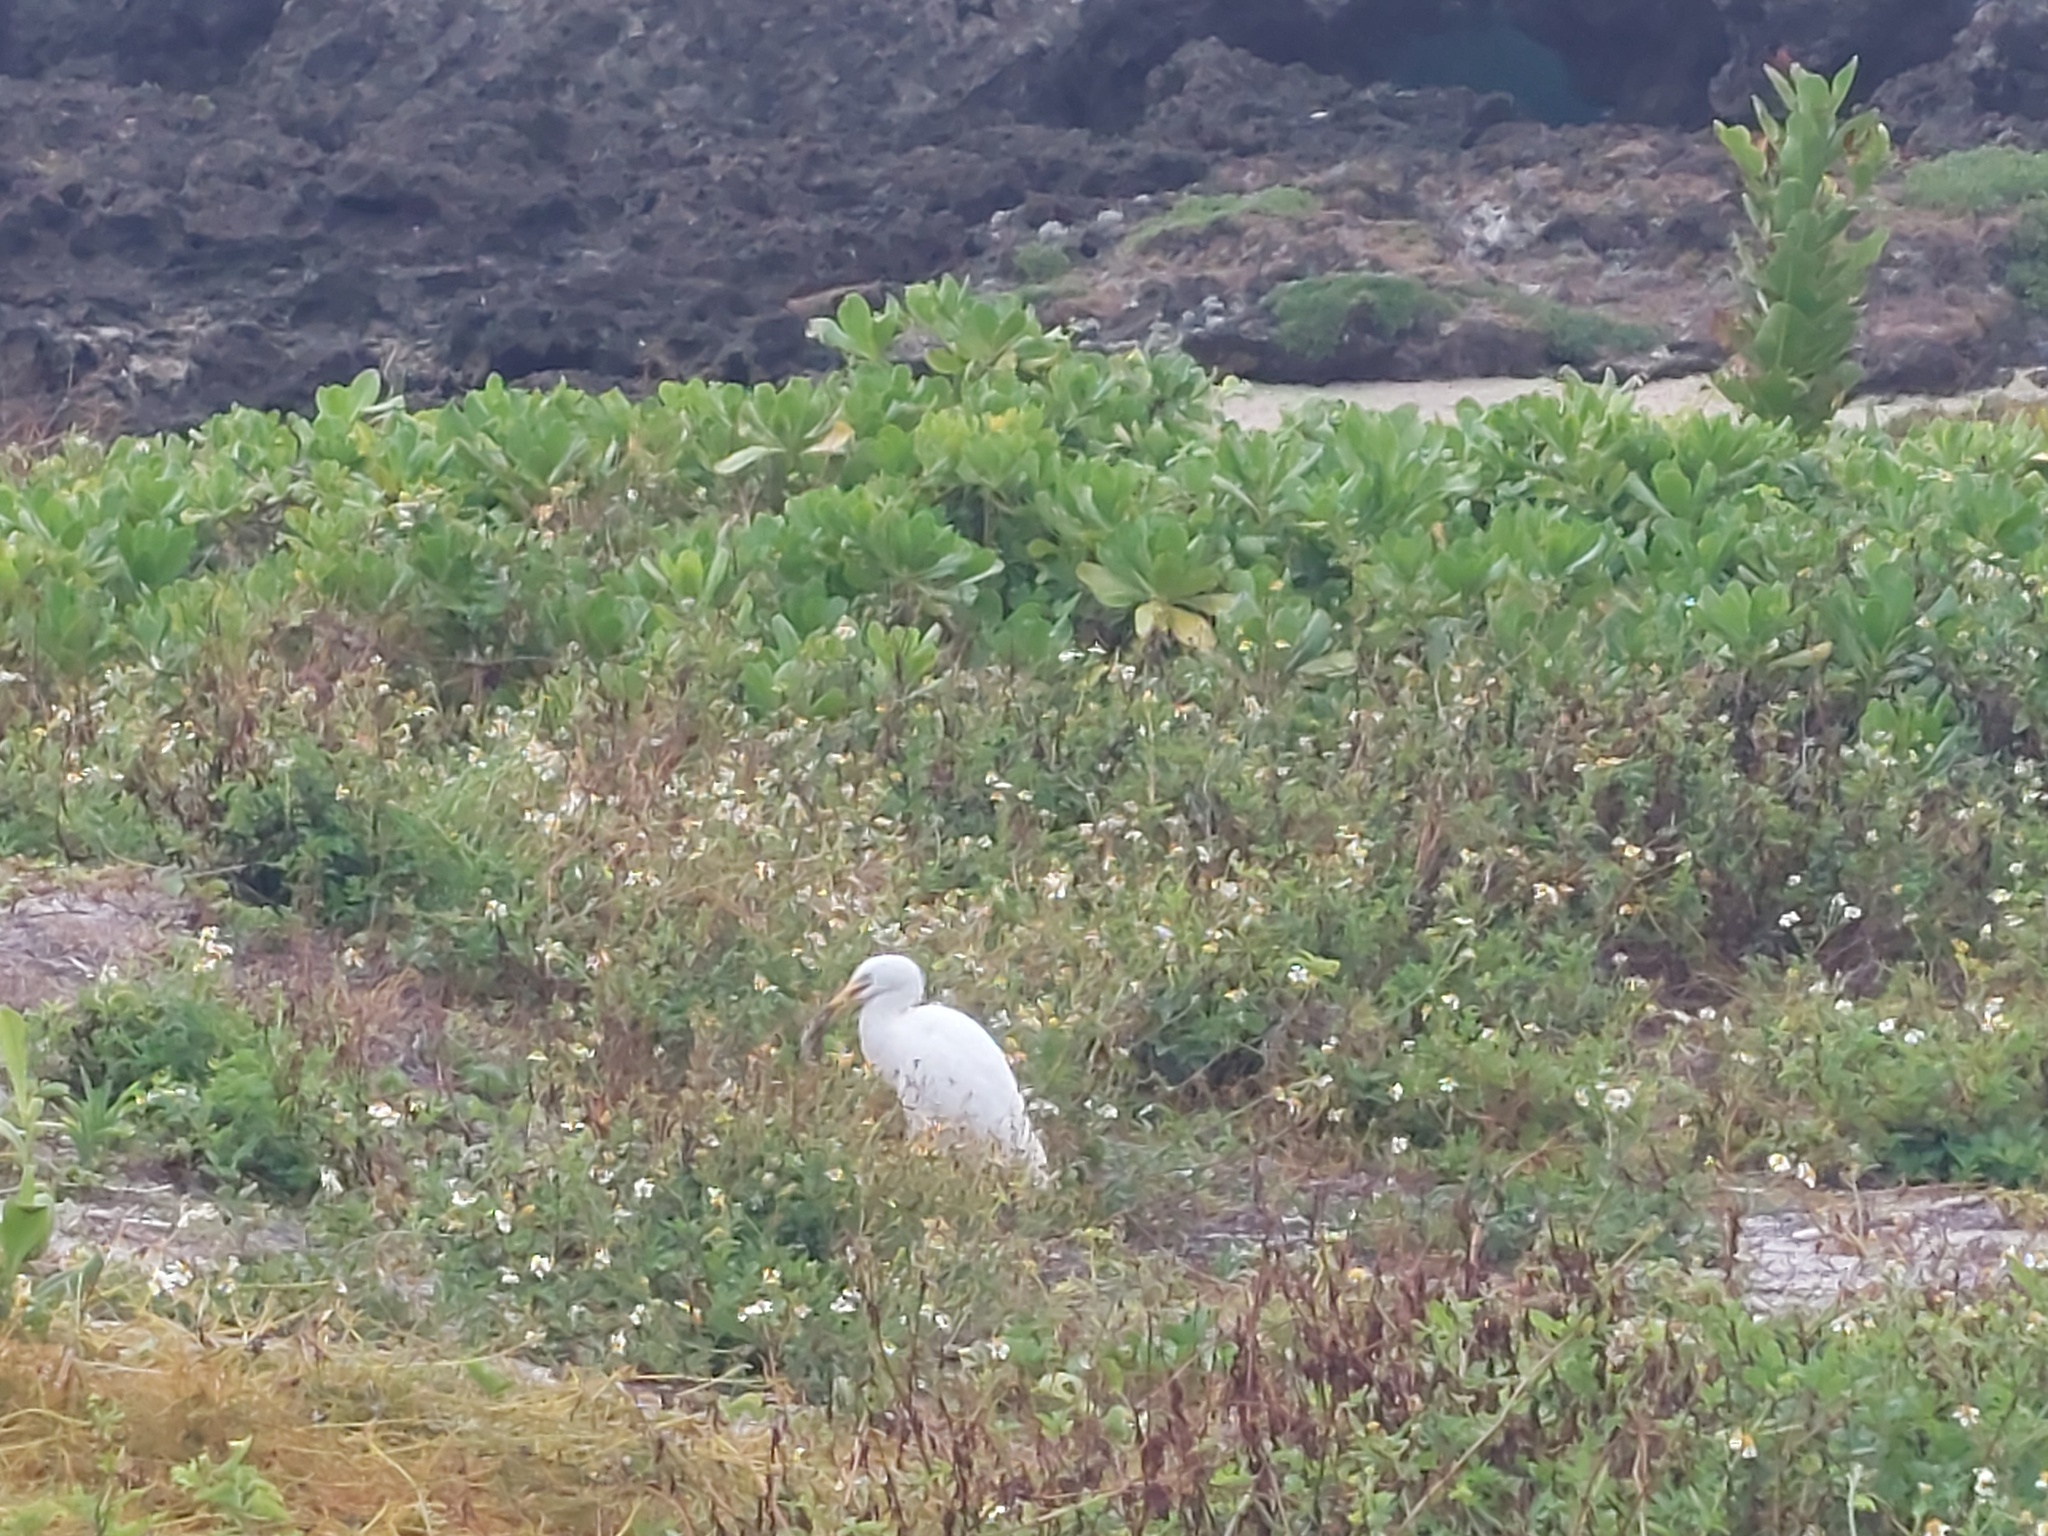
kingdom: Animalia
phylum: Chordata
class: Aves
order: Pelecaniformes
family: Ardeidae
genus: Bubulcus
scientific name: Bubulcus coromandus
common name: Eastern cattle egret
